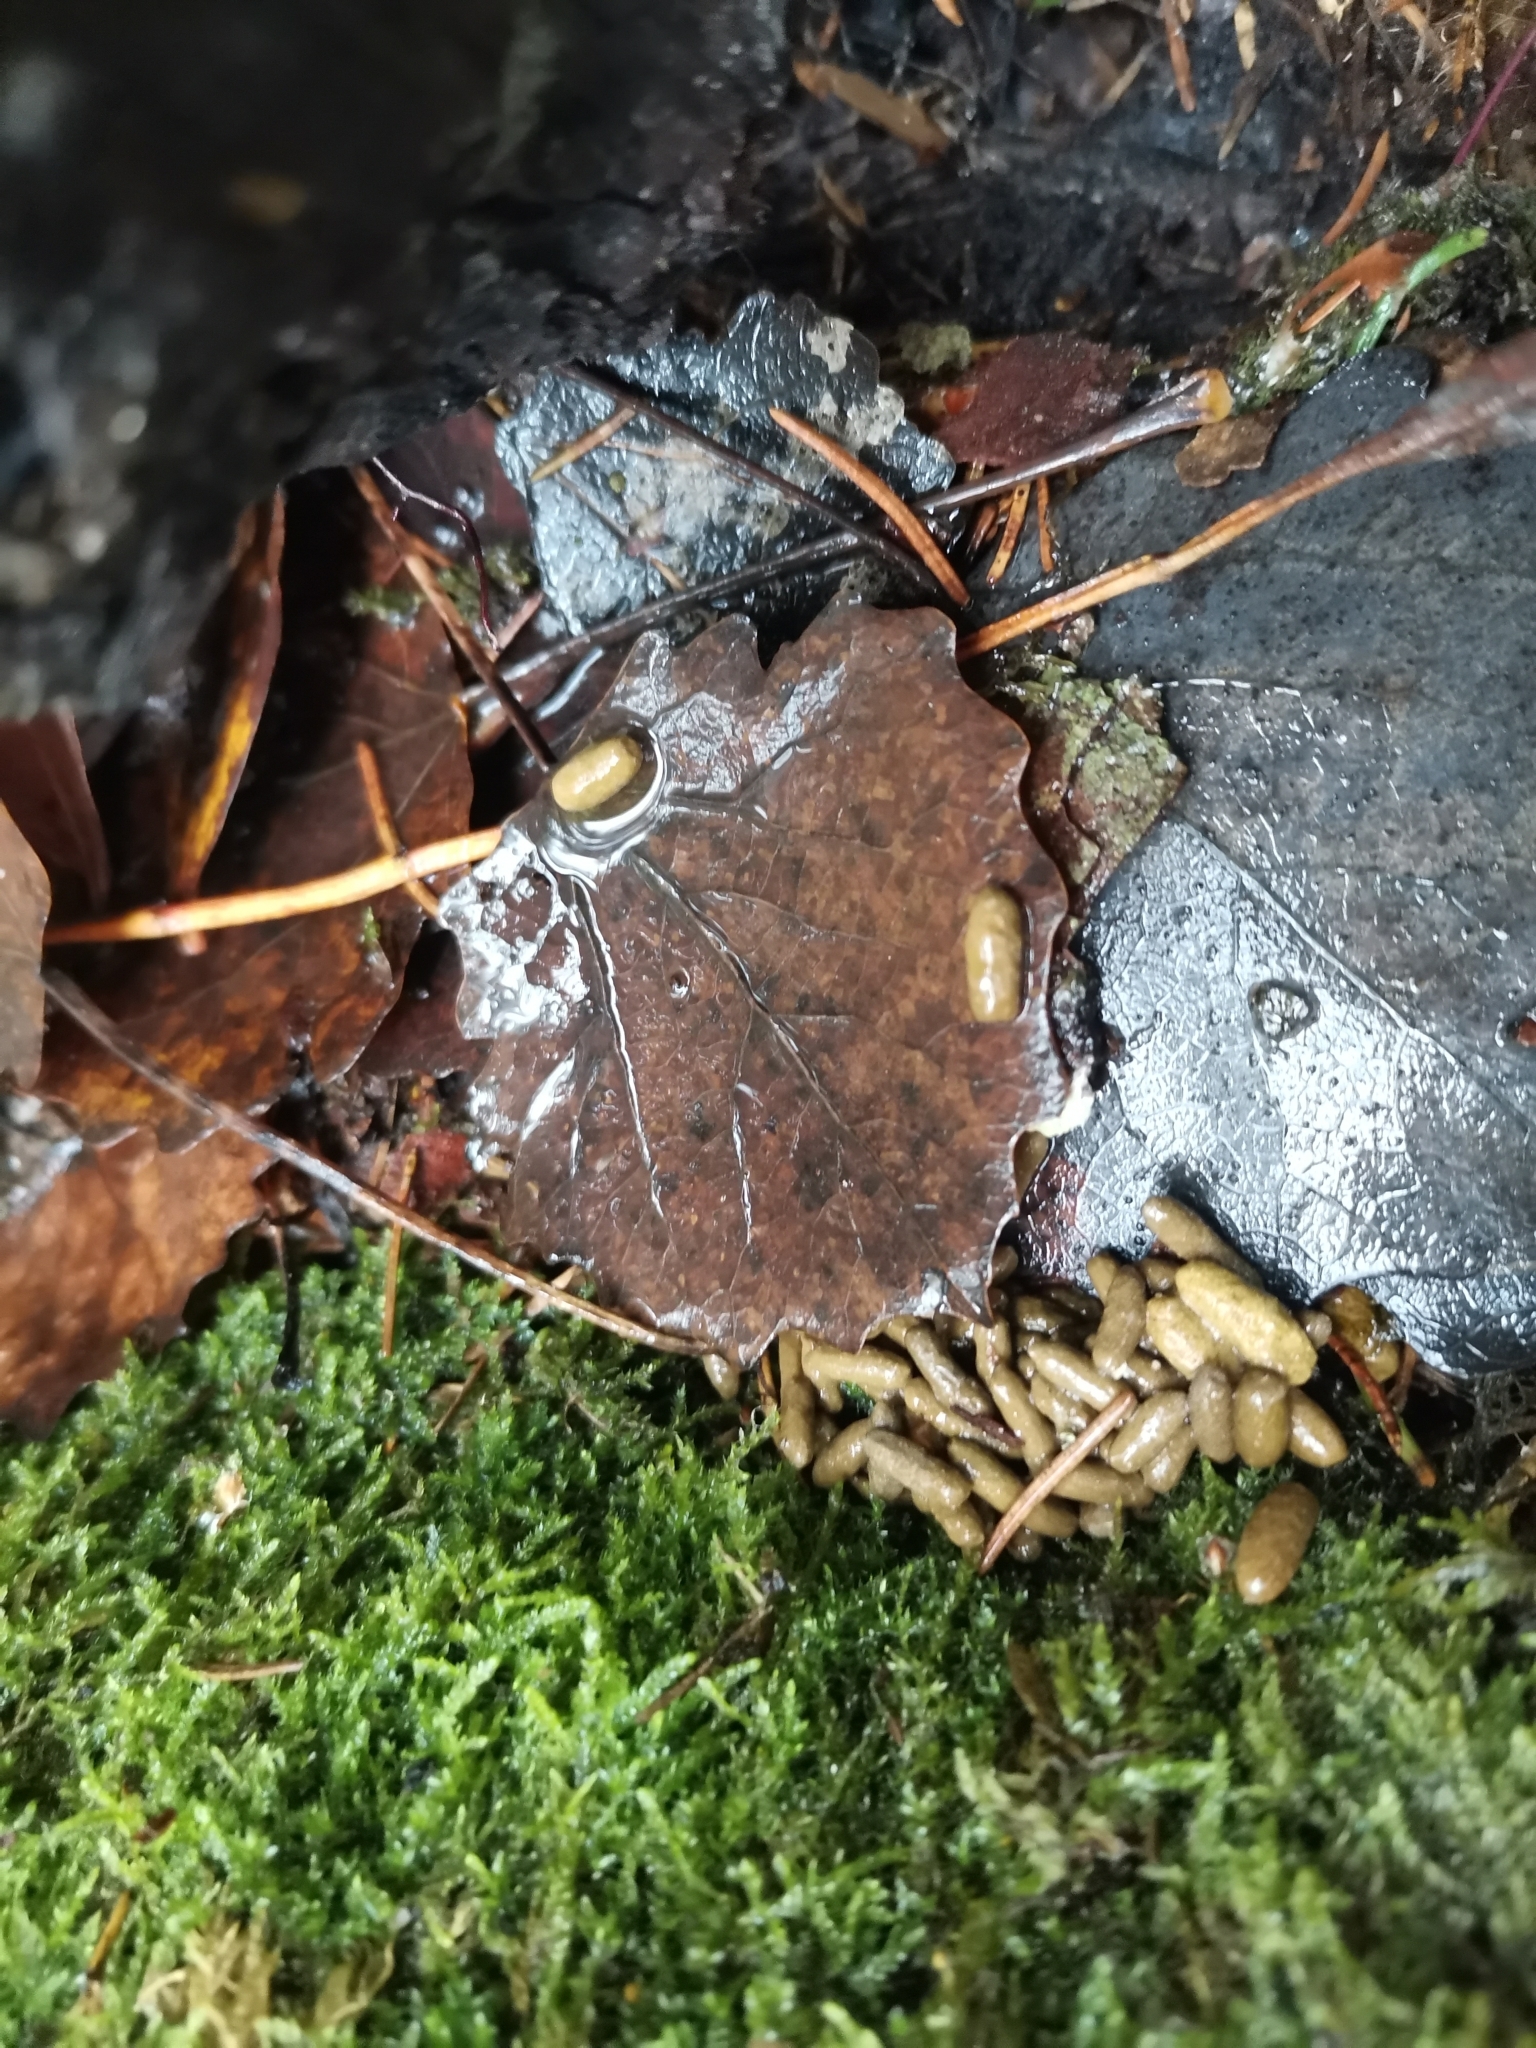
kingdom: Animalia
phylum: Chordata
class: Mammalia
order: Rodentia
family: Sciuridae
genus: Pteromys
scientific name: Pteromys volans
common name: Siberian flying squirrel
